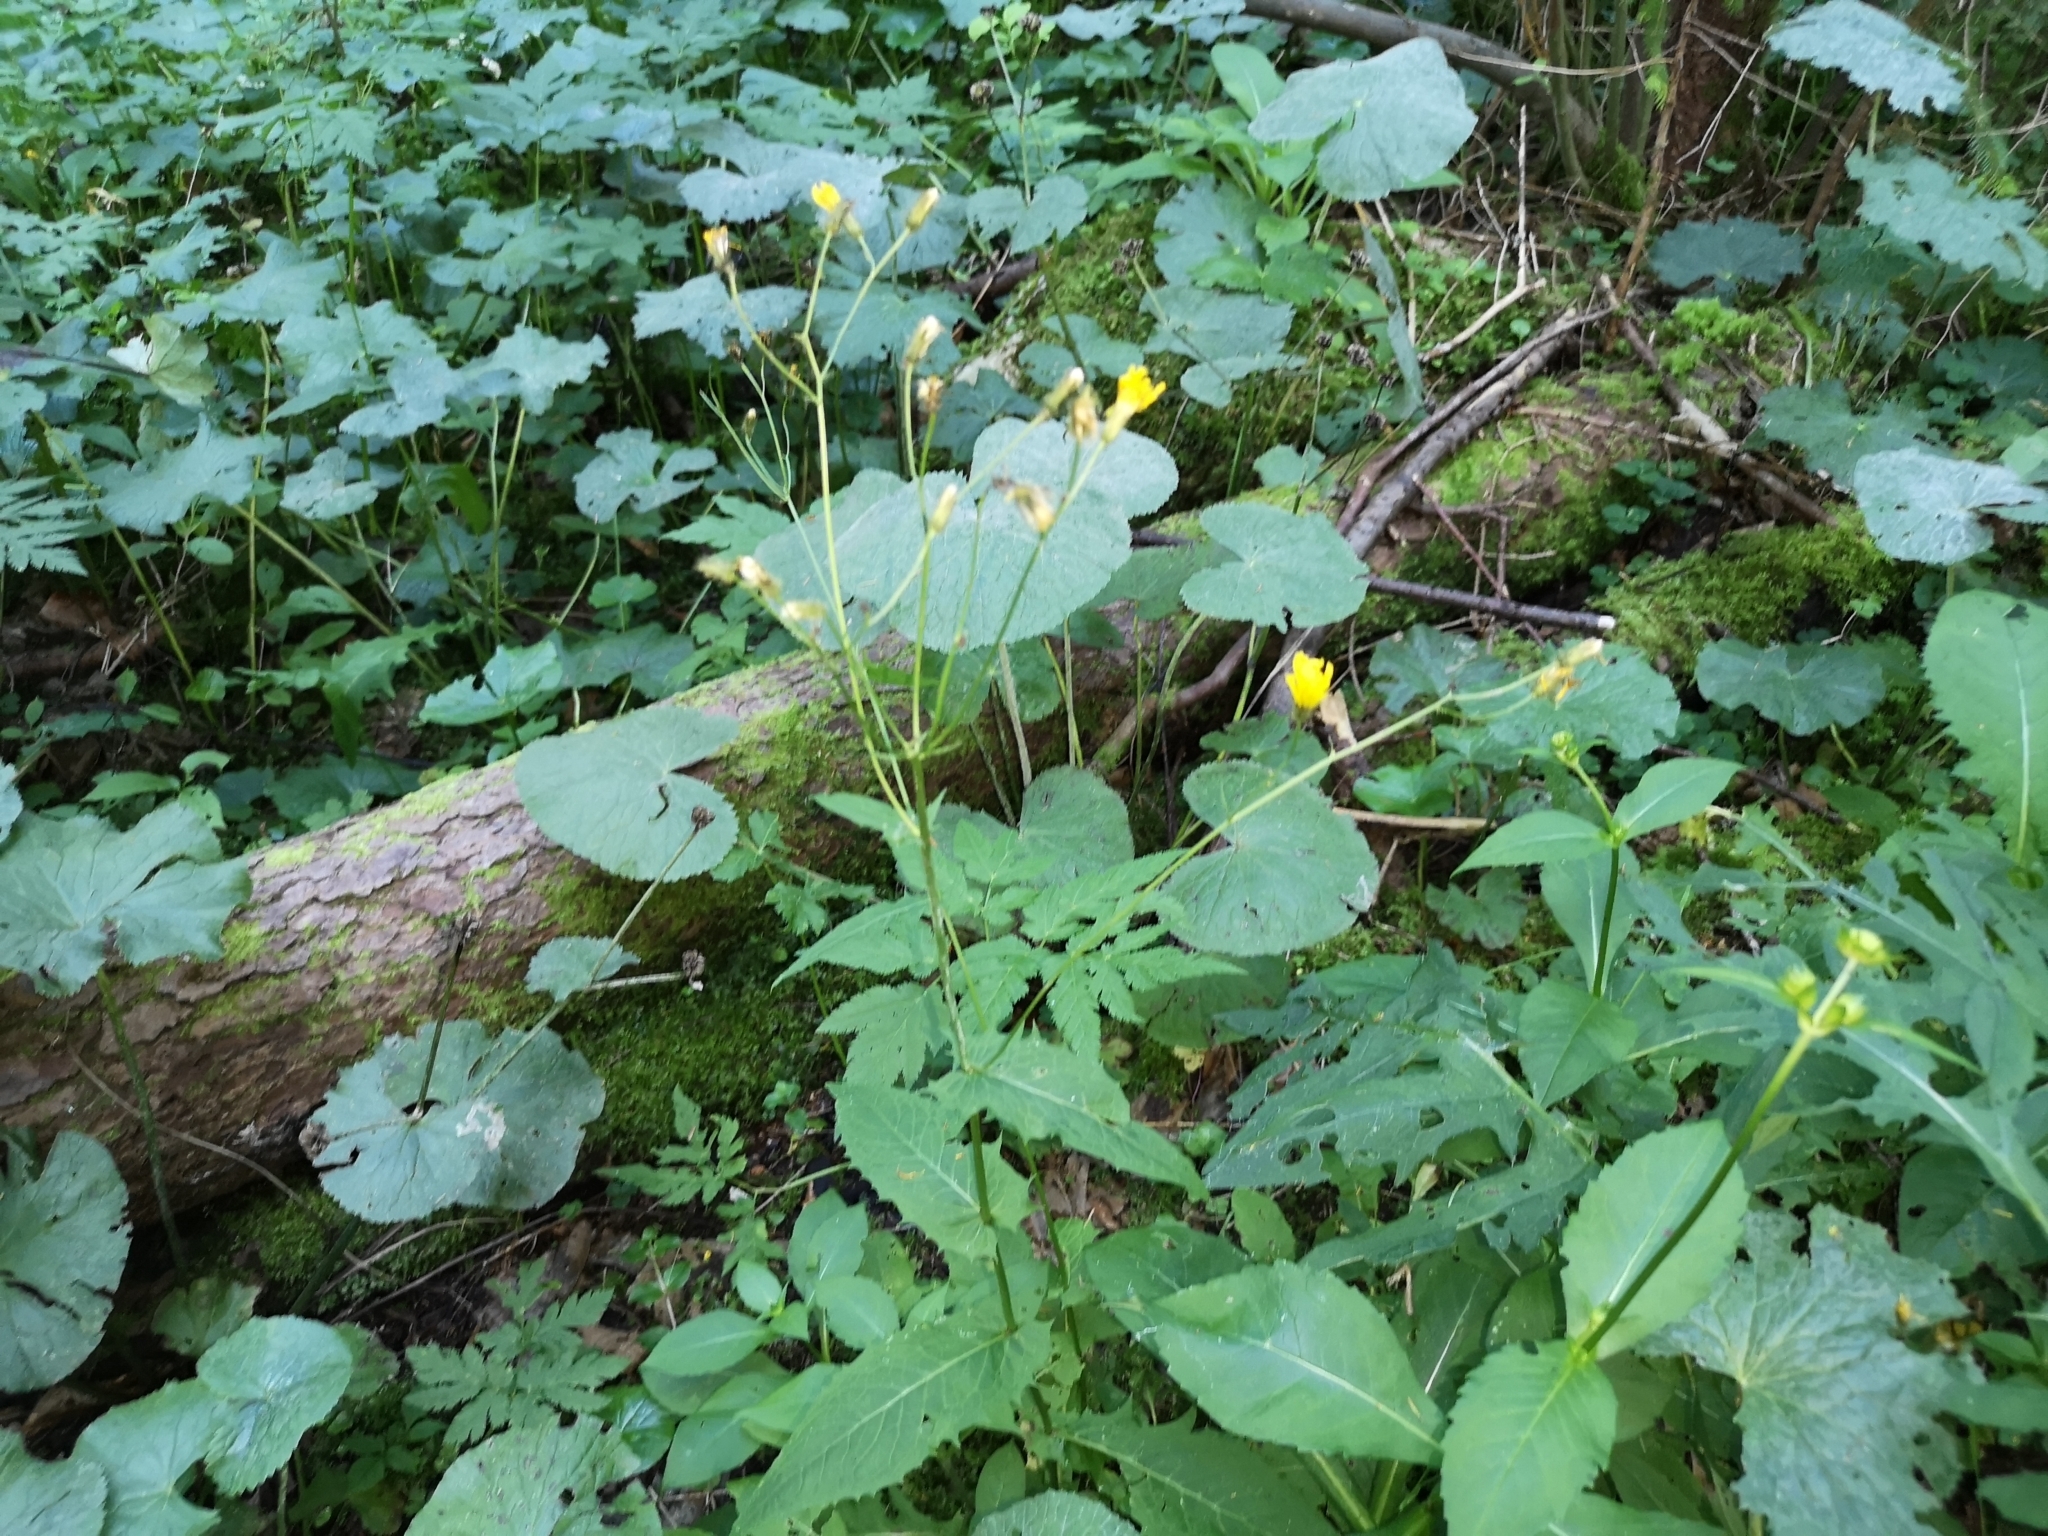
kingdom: Plantae
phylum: Tracheophyta
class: Magnoliopsida
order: Asterales
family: Asteraceae
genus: Crepis
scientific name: Crepis paludosa
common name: Marsh hawk's-beard
